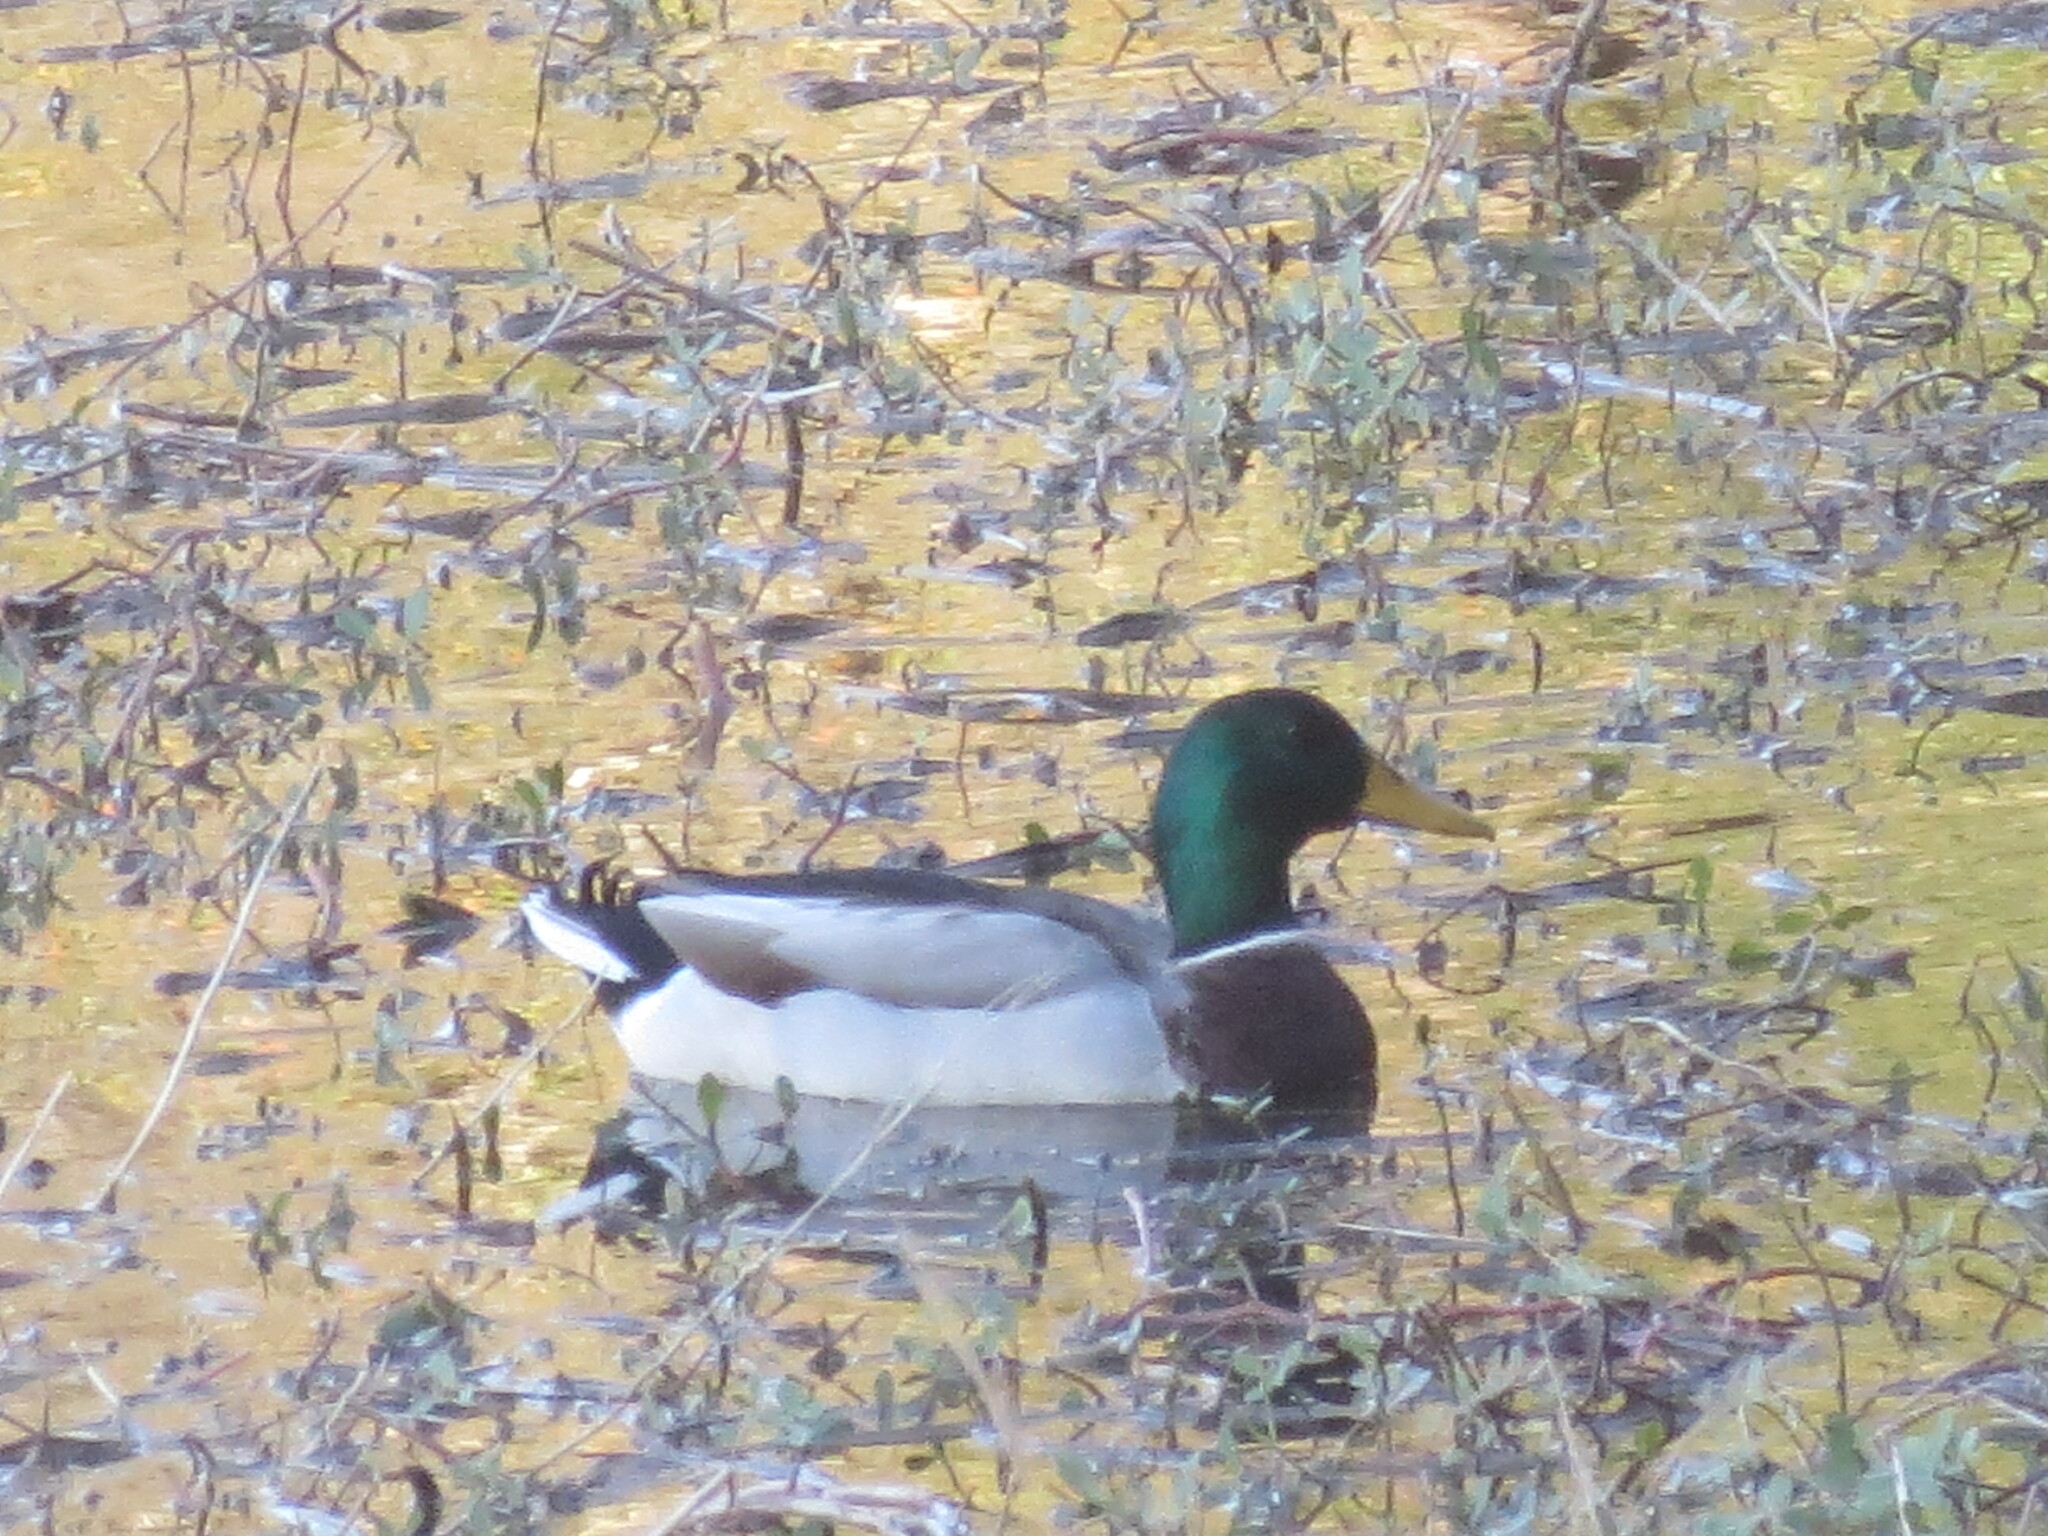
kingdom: Animalia
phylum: Chordata
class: Aves
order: Anseriformes
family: Anatidae
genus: Anas
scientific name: Anas platyrhynchos
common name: Mallard
